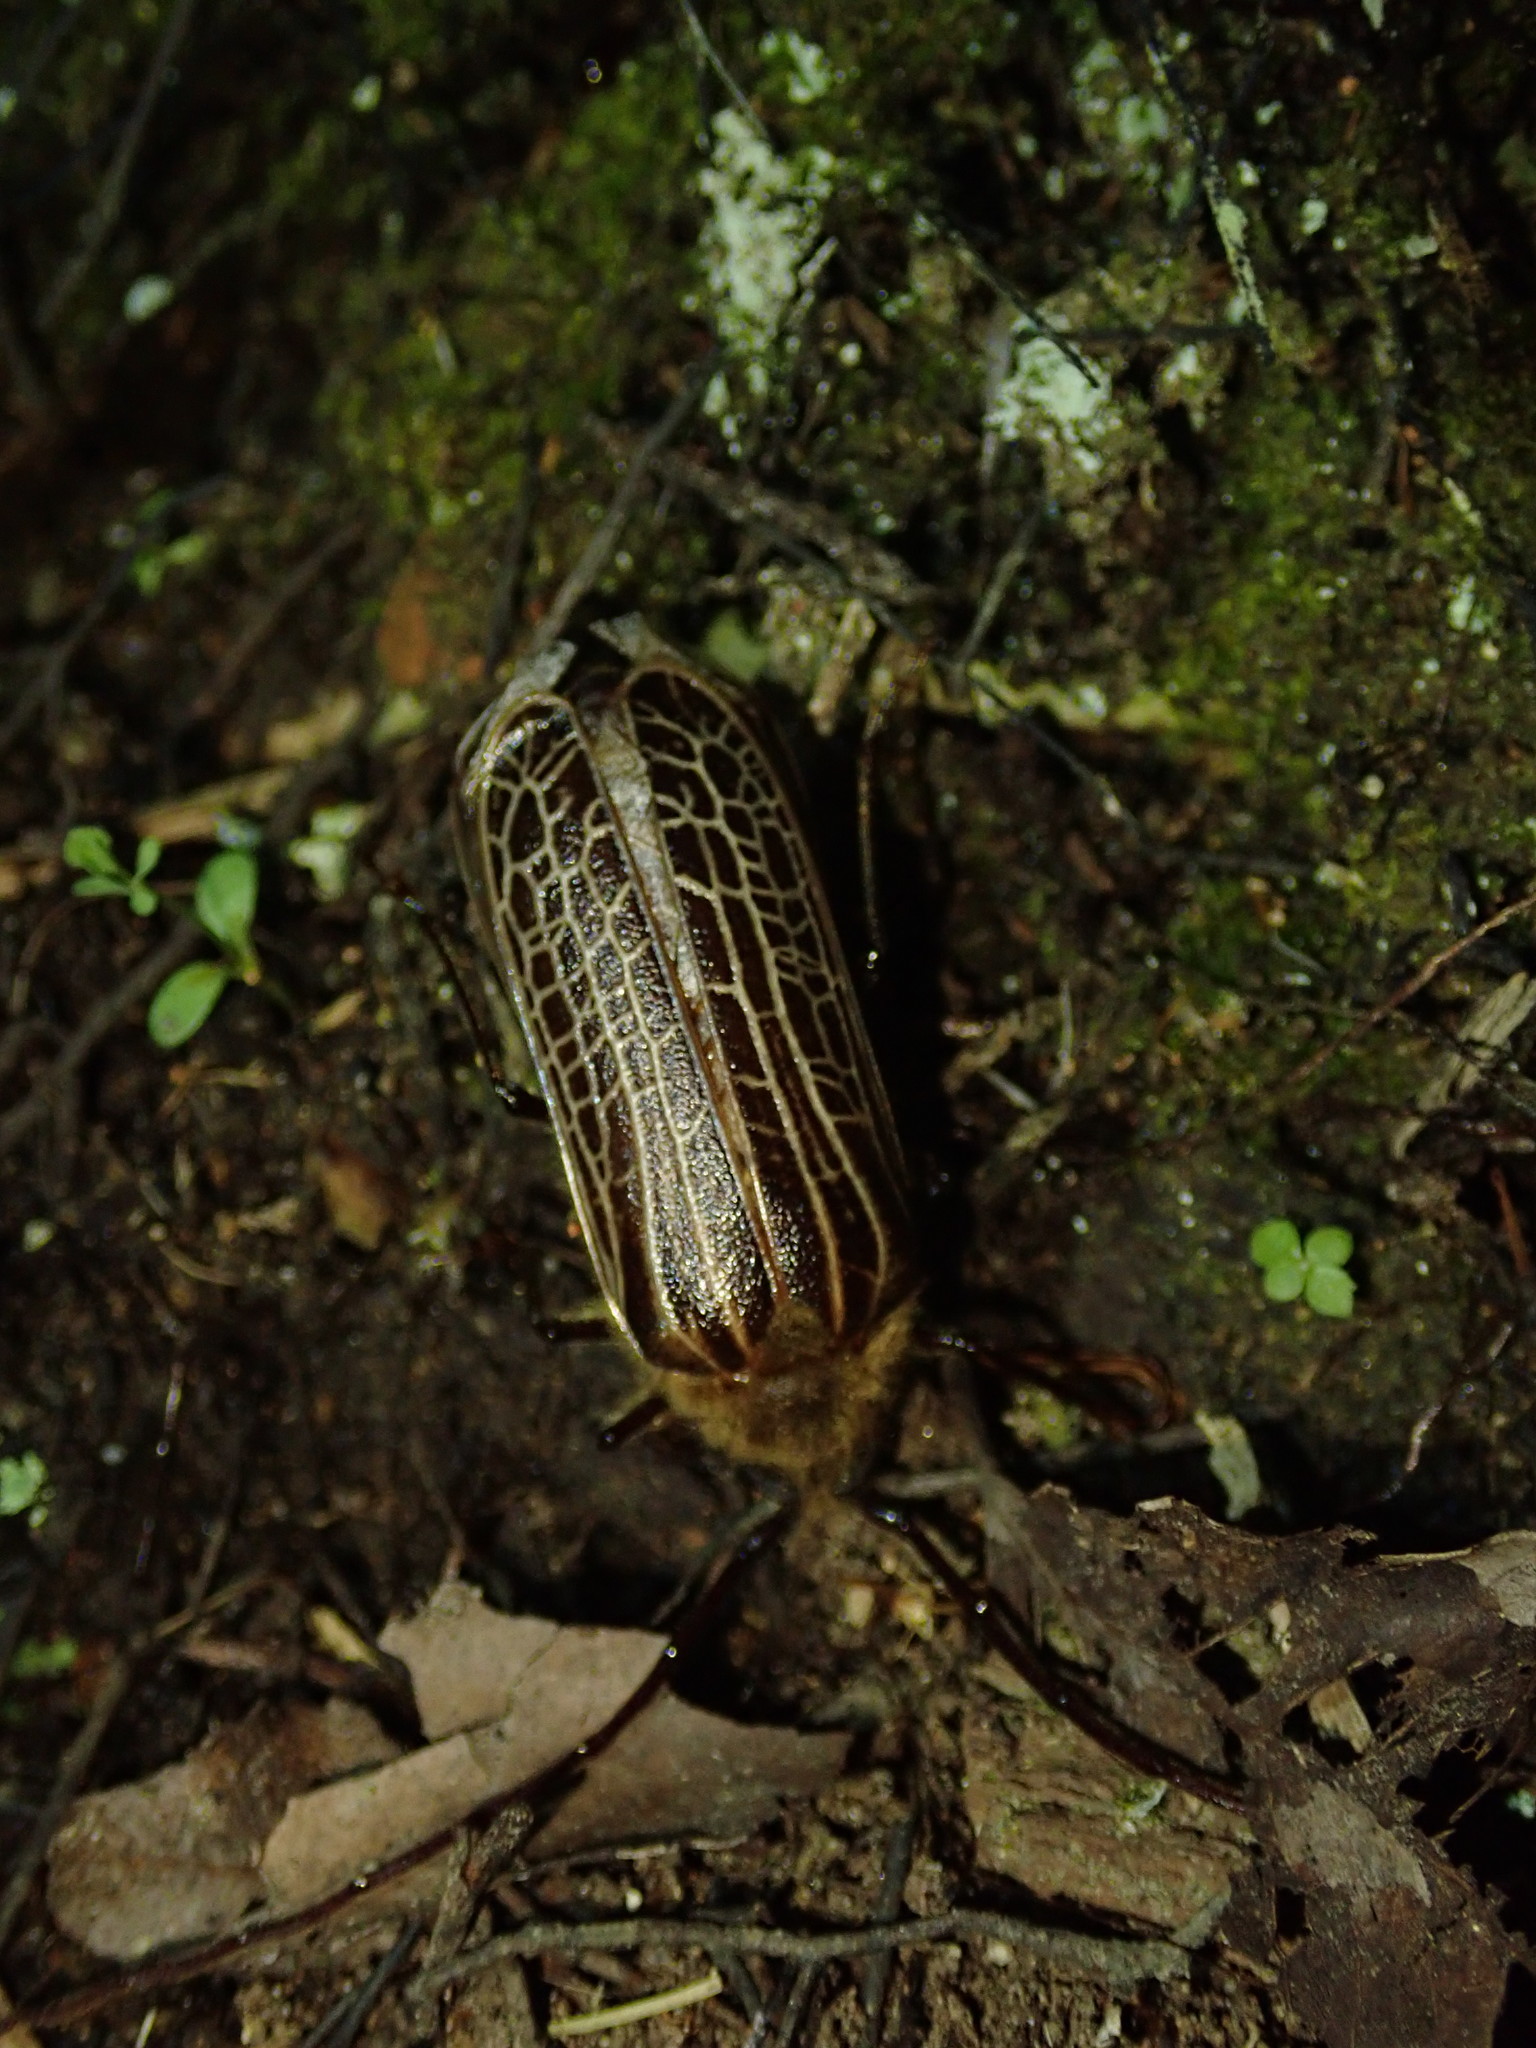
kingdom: Animalia
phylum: Arthropoda
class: Insecta
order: Coleoptera
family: Cerambycidae
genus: Prionoplus
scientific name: Prionoplus reticularis
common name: Huhu beetle
